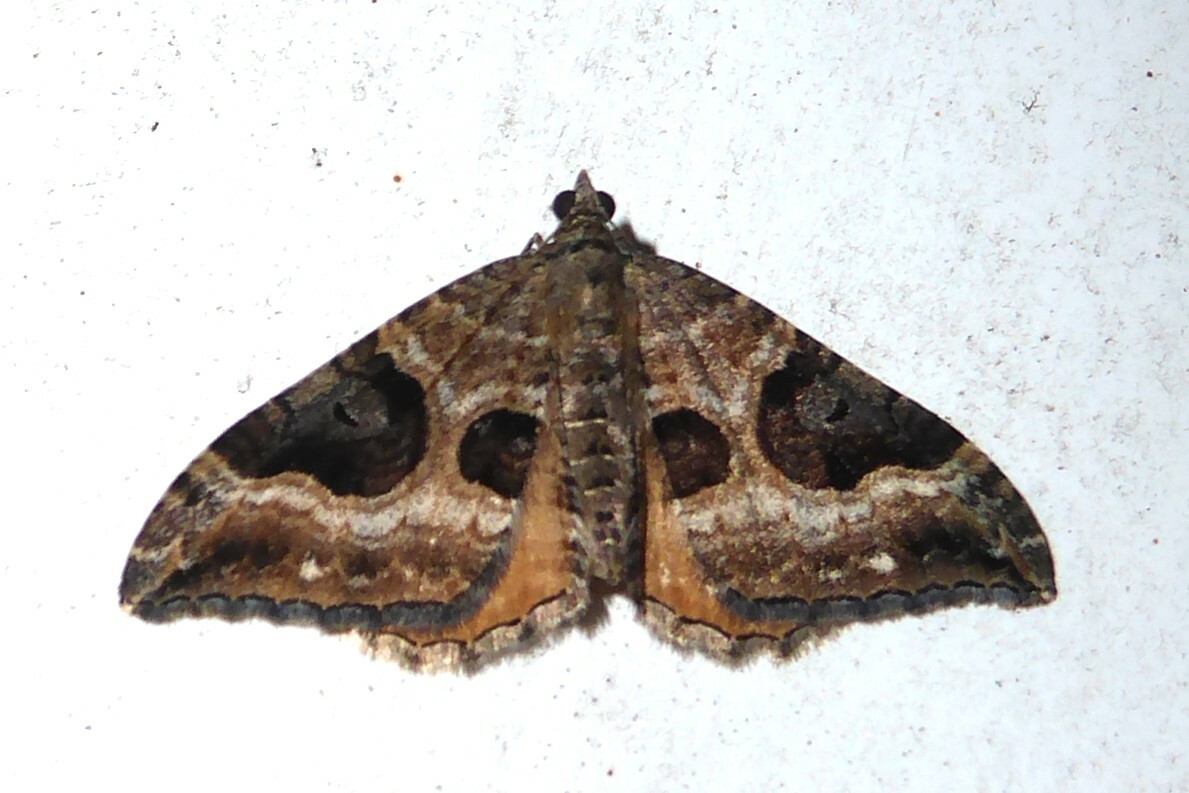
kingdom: Animalia
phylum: Arthropoda
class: Insecta
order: Lepidoptera
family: Geometridae
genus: Hydriomena
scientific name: Hydriomena deltoidata
